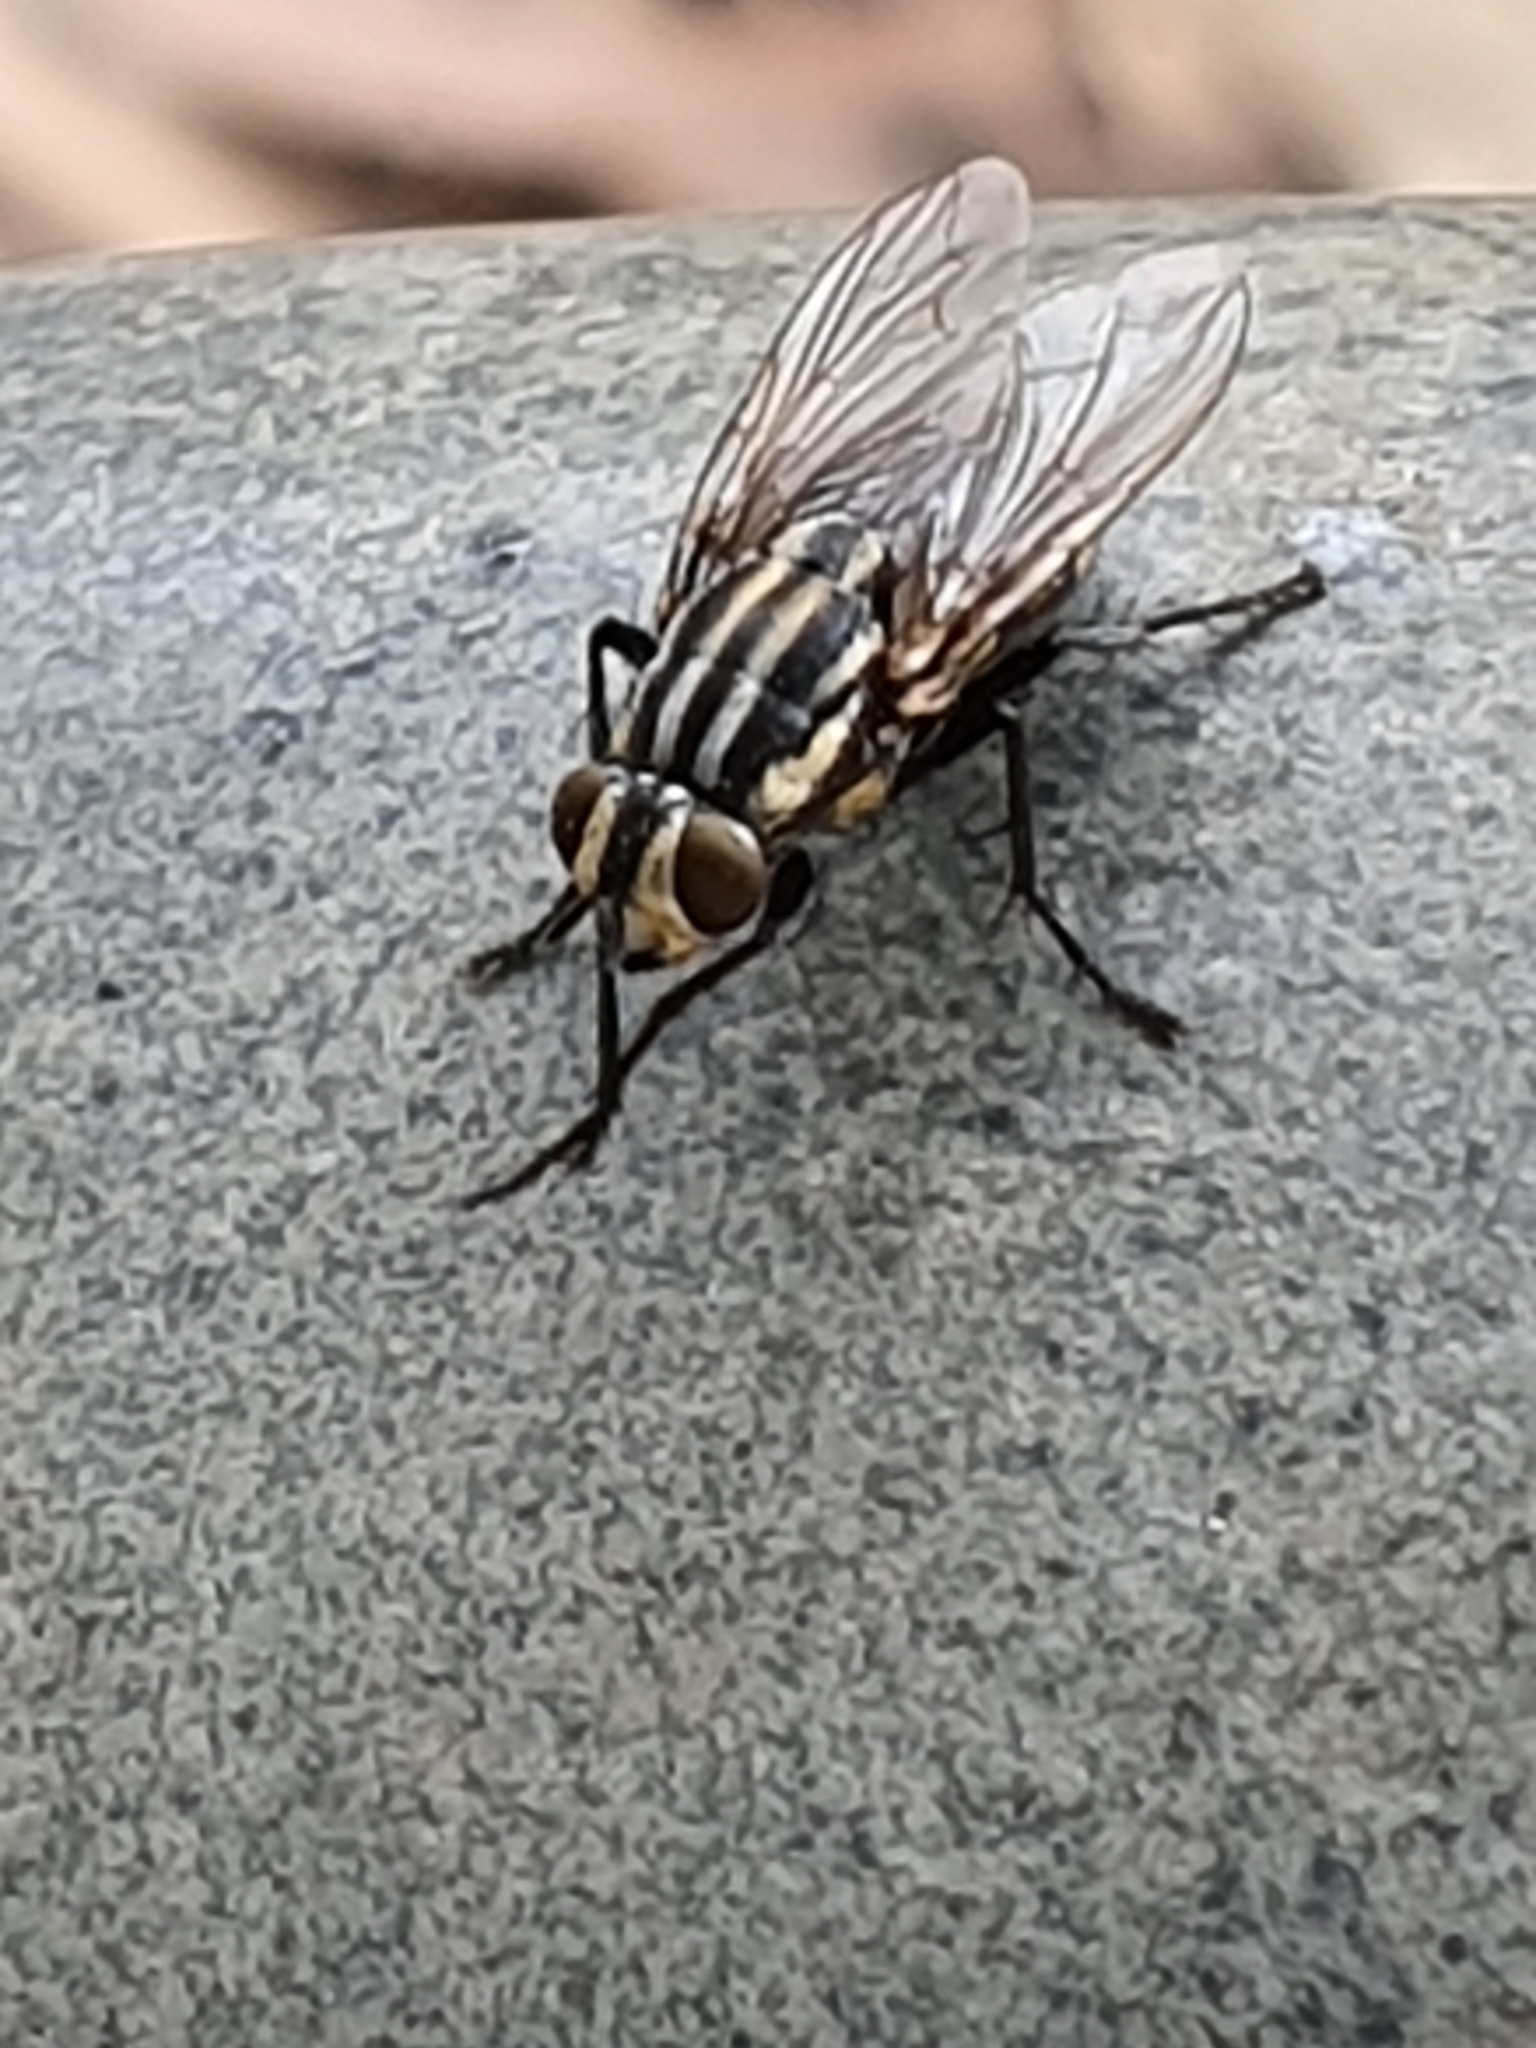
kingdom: Animalia
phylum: Arthropoda
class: Insecta
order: Diptera
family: Sarcophagidae
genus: Oxysarcodexia
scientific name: Oxysarcodexia varia
